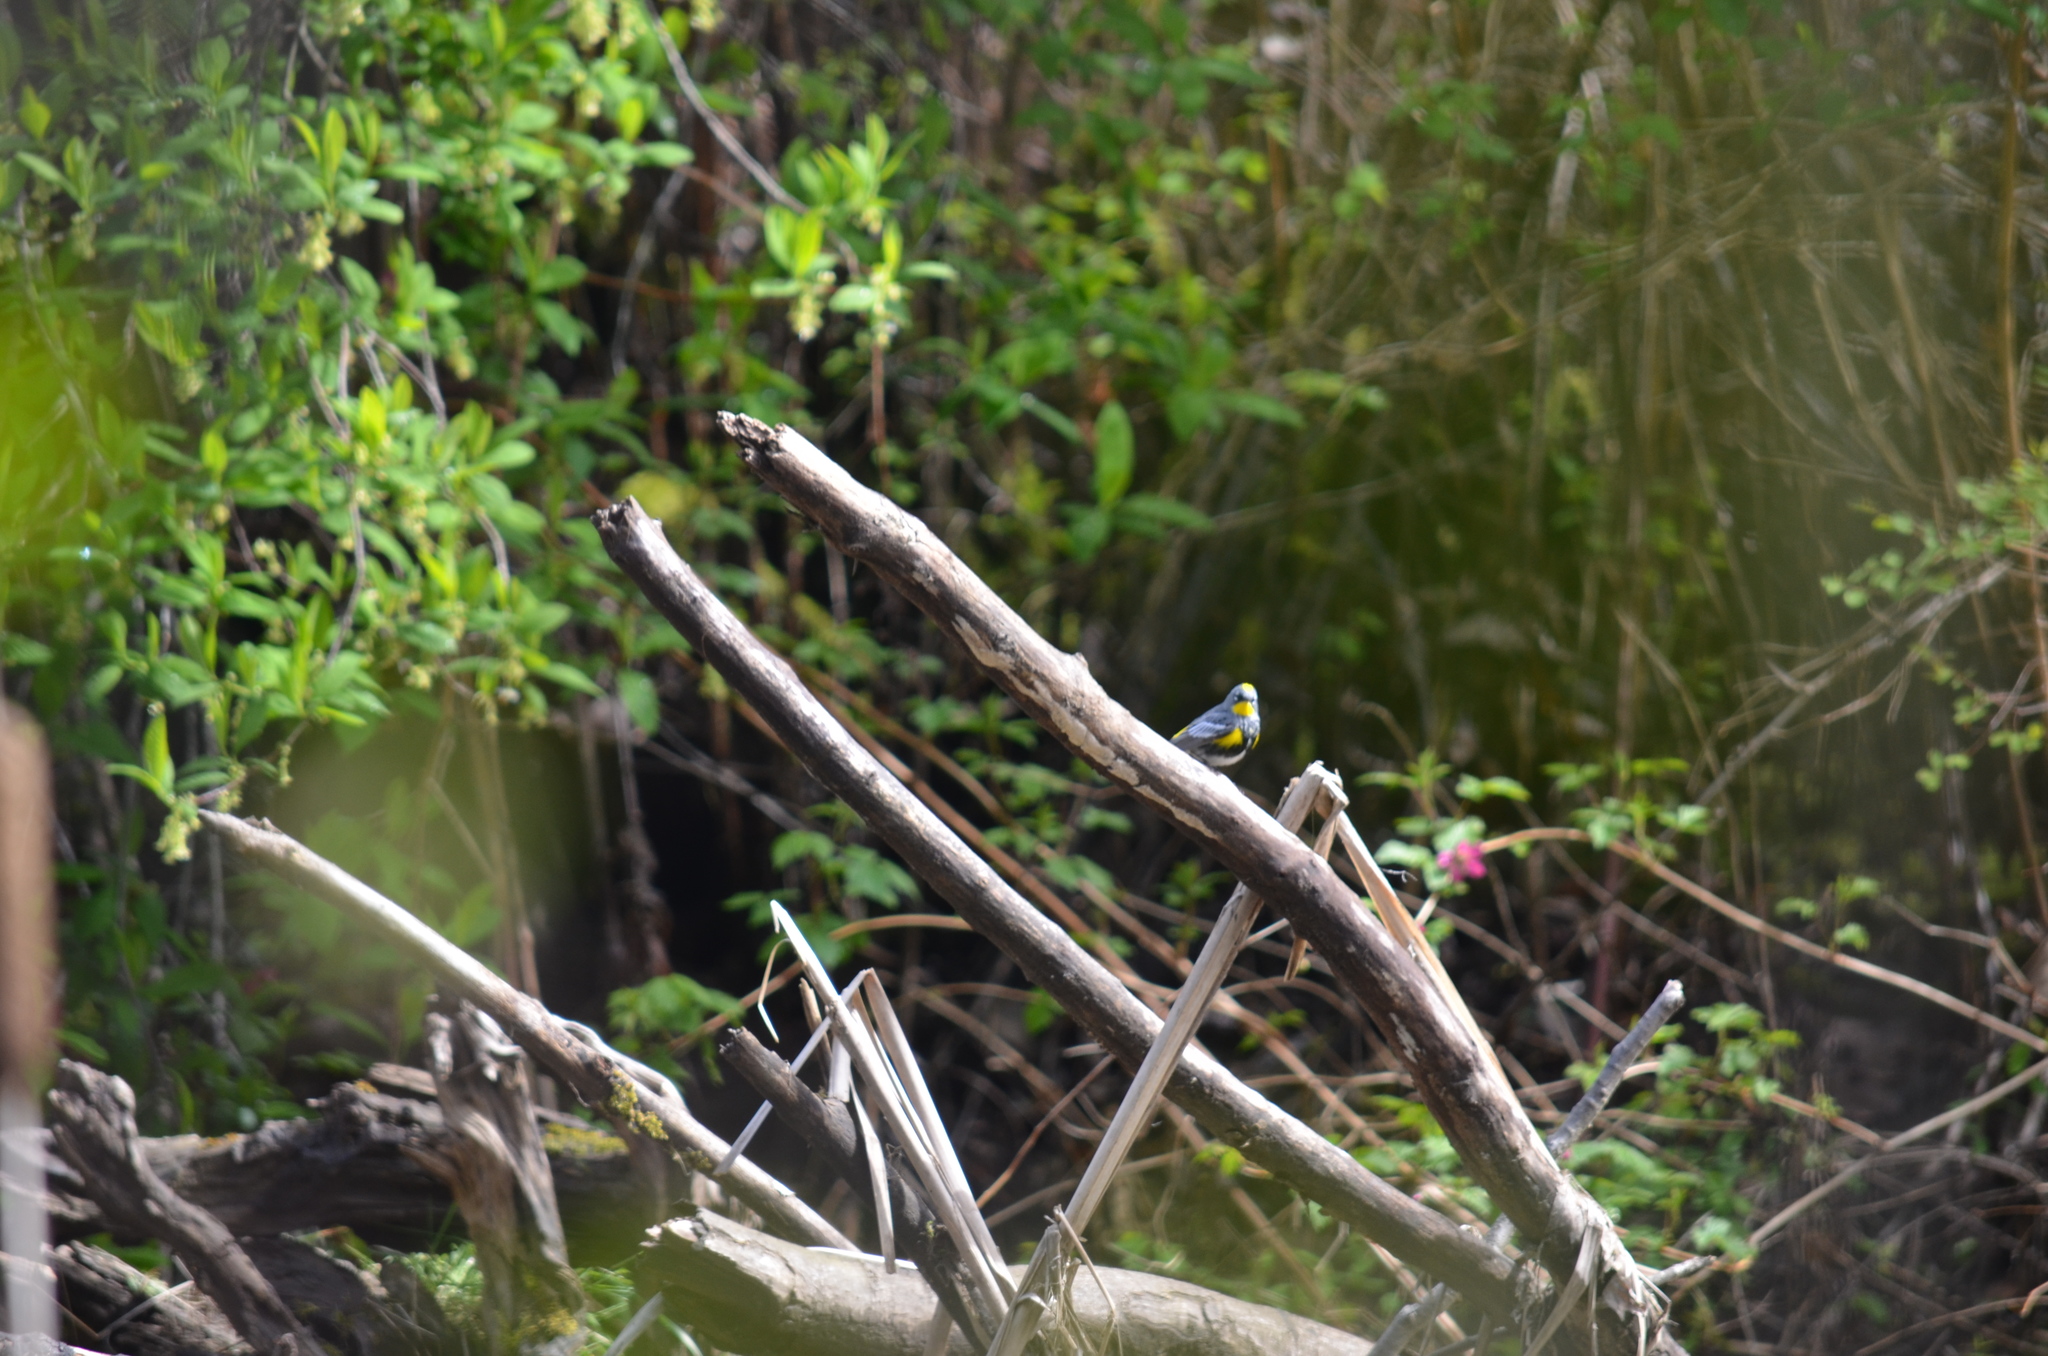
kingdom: Animalia
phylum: Chordata
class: Aves
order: Passeriformes
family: Parulidae
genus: Setophaga
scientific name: Setophaga auduboni
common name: Audubon's warbler
